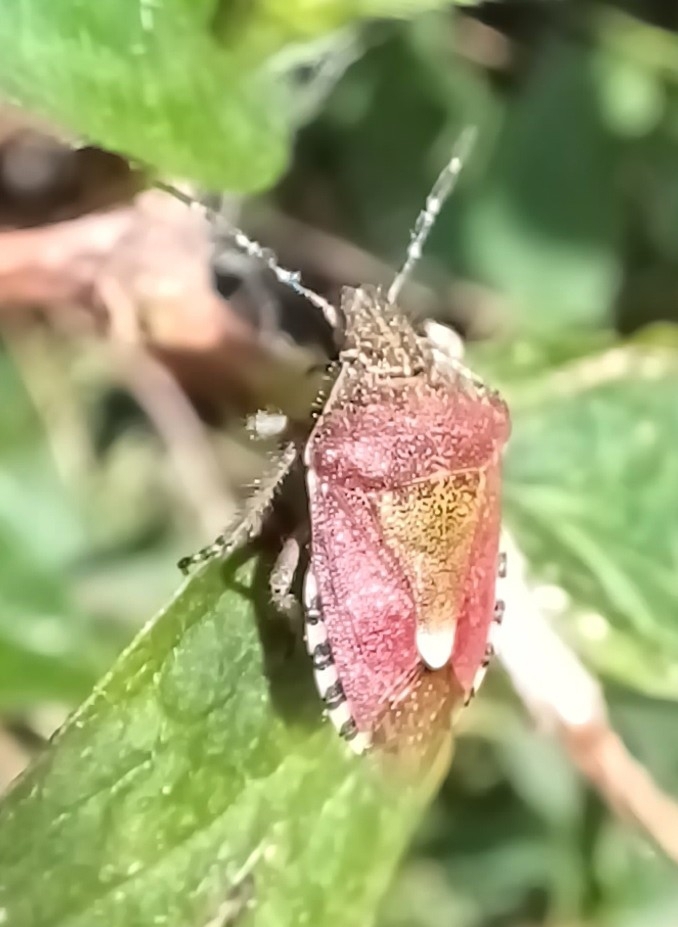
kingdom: Animalia
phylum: Arthropoda
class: Insecta
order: Hemiptera
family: Pentatomidae
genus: Dolycoris
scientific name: Dolycoris baccarum
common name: Sloe bug
